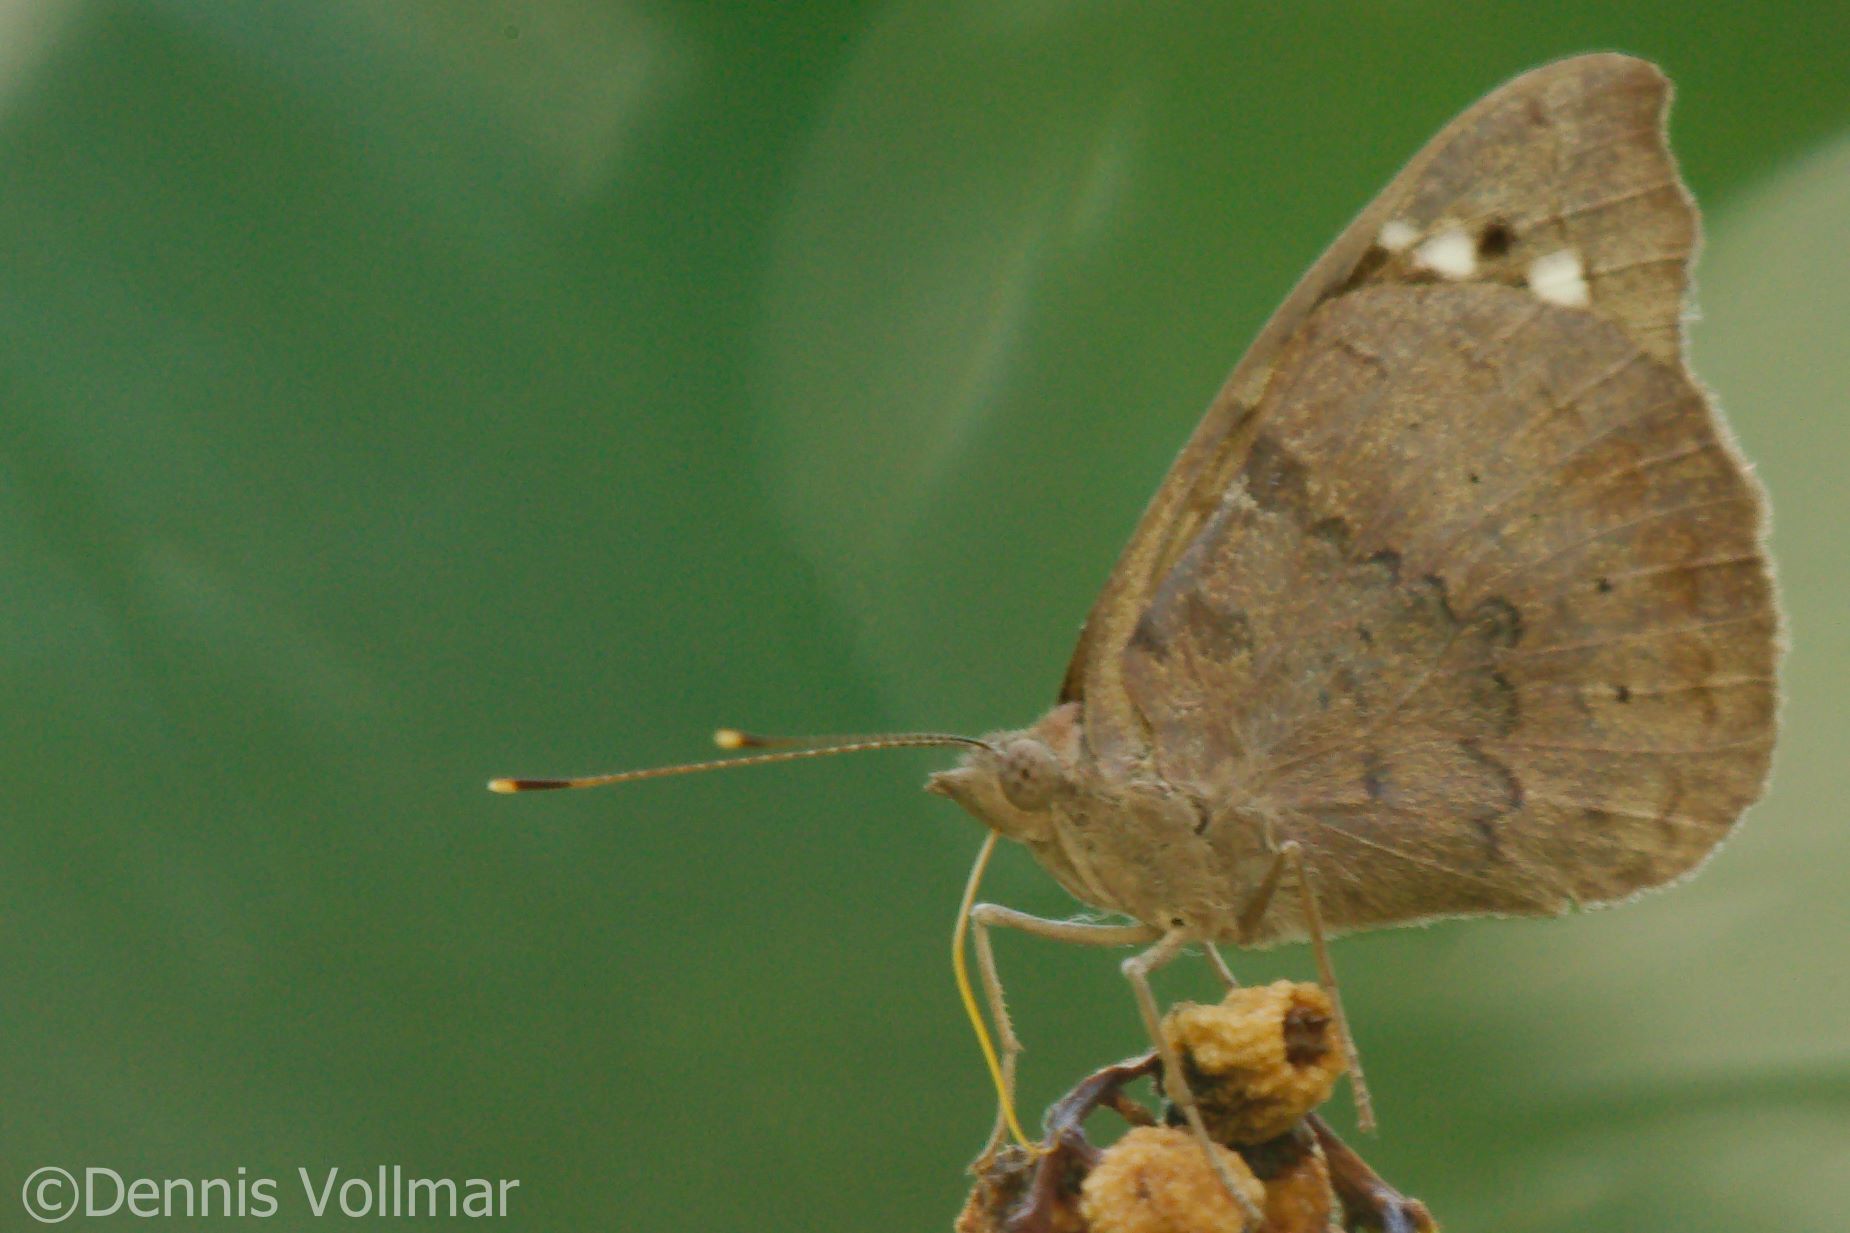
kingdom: Animalia
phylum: Arthropoda
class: Insecta
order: Lepidoptera
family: Nymphalidae
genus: Eunica
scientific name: Eunica tatila
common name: Florida purplewing
